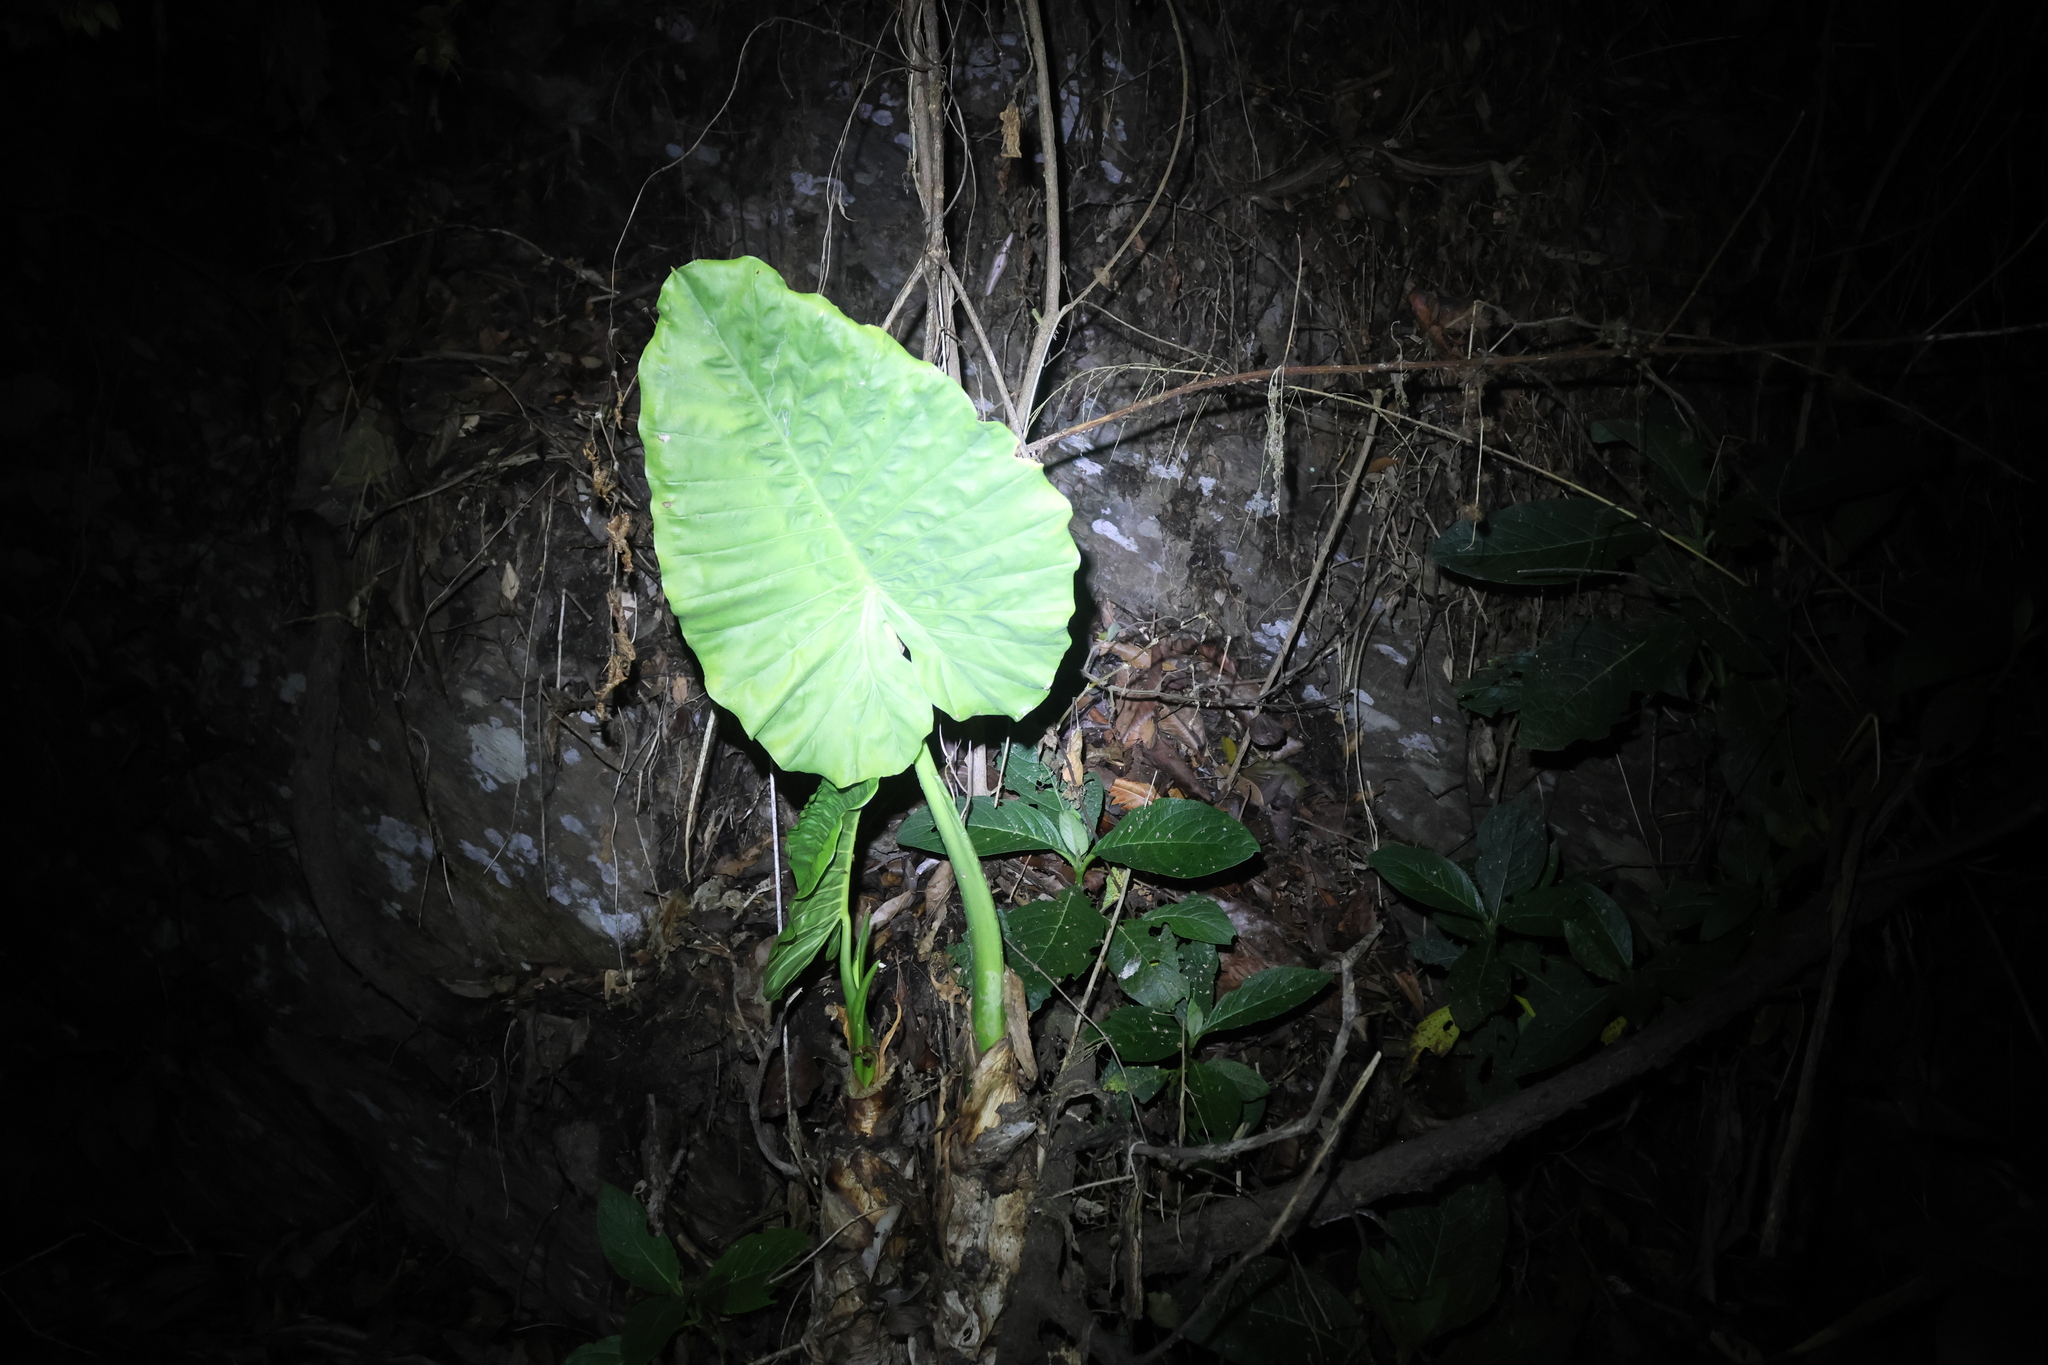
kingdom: Plantae
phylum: Tracheophyta
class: Liliopsida
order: Alismatales
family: Araceae
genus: Alocasia
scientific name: Alocasia odora
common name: Asian taro
